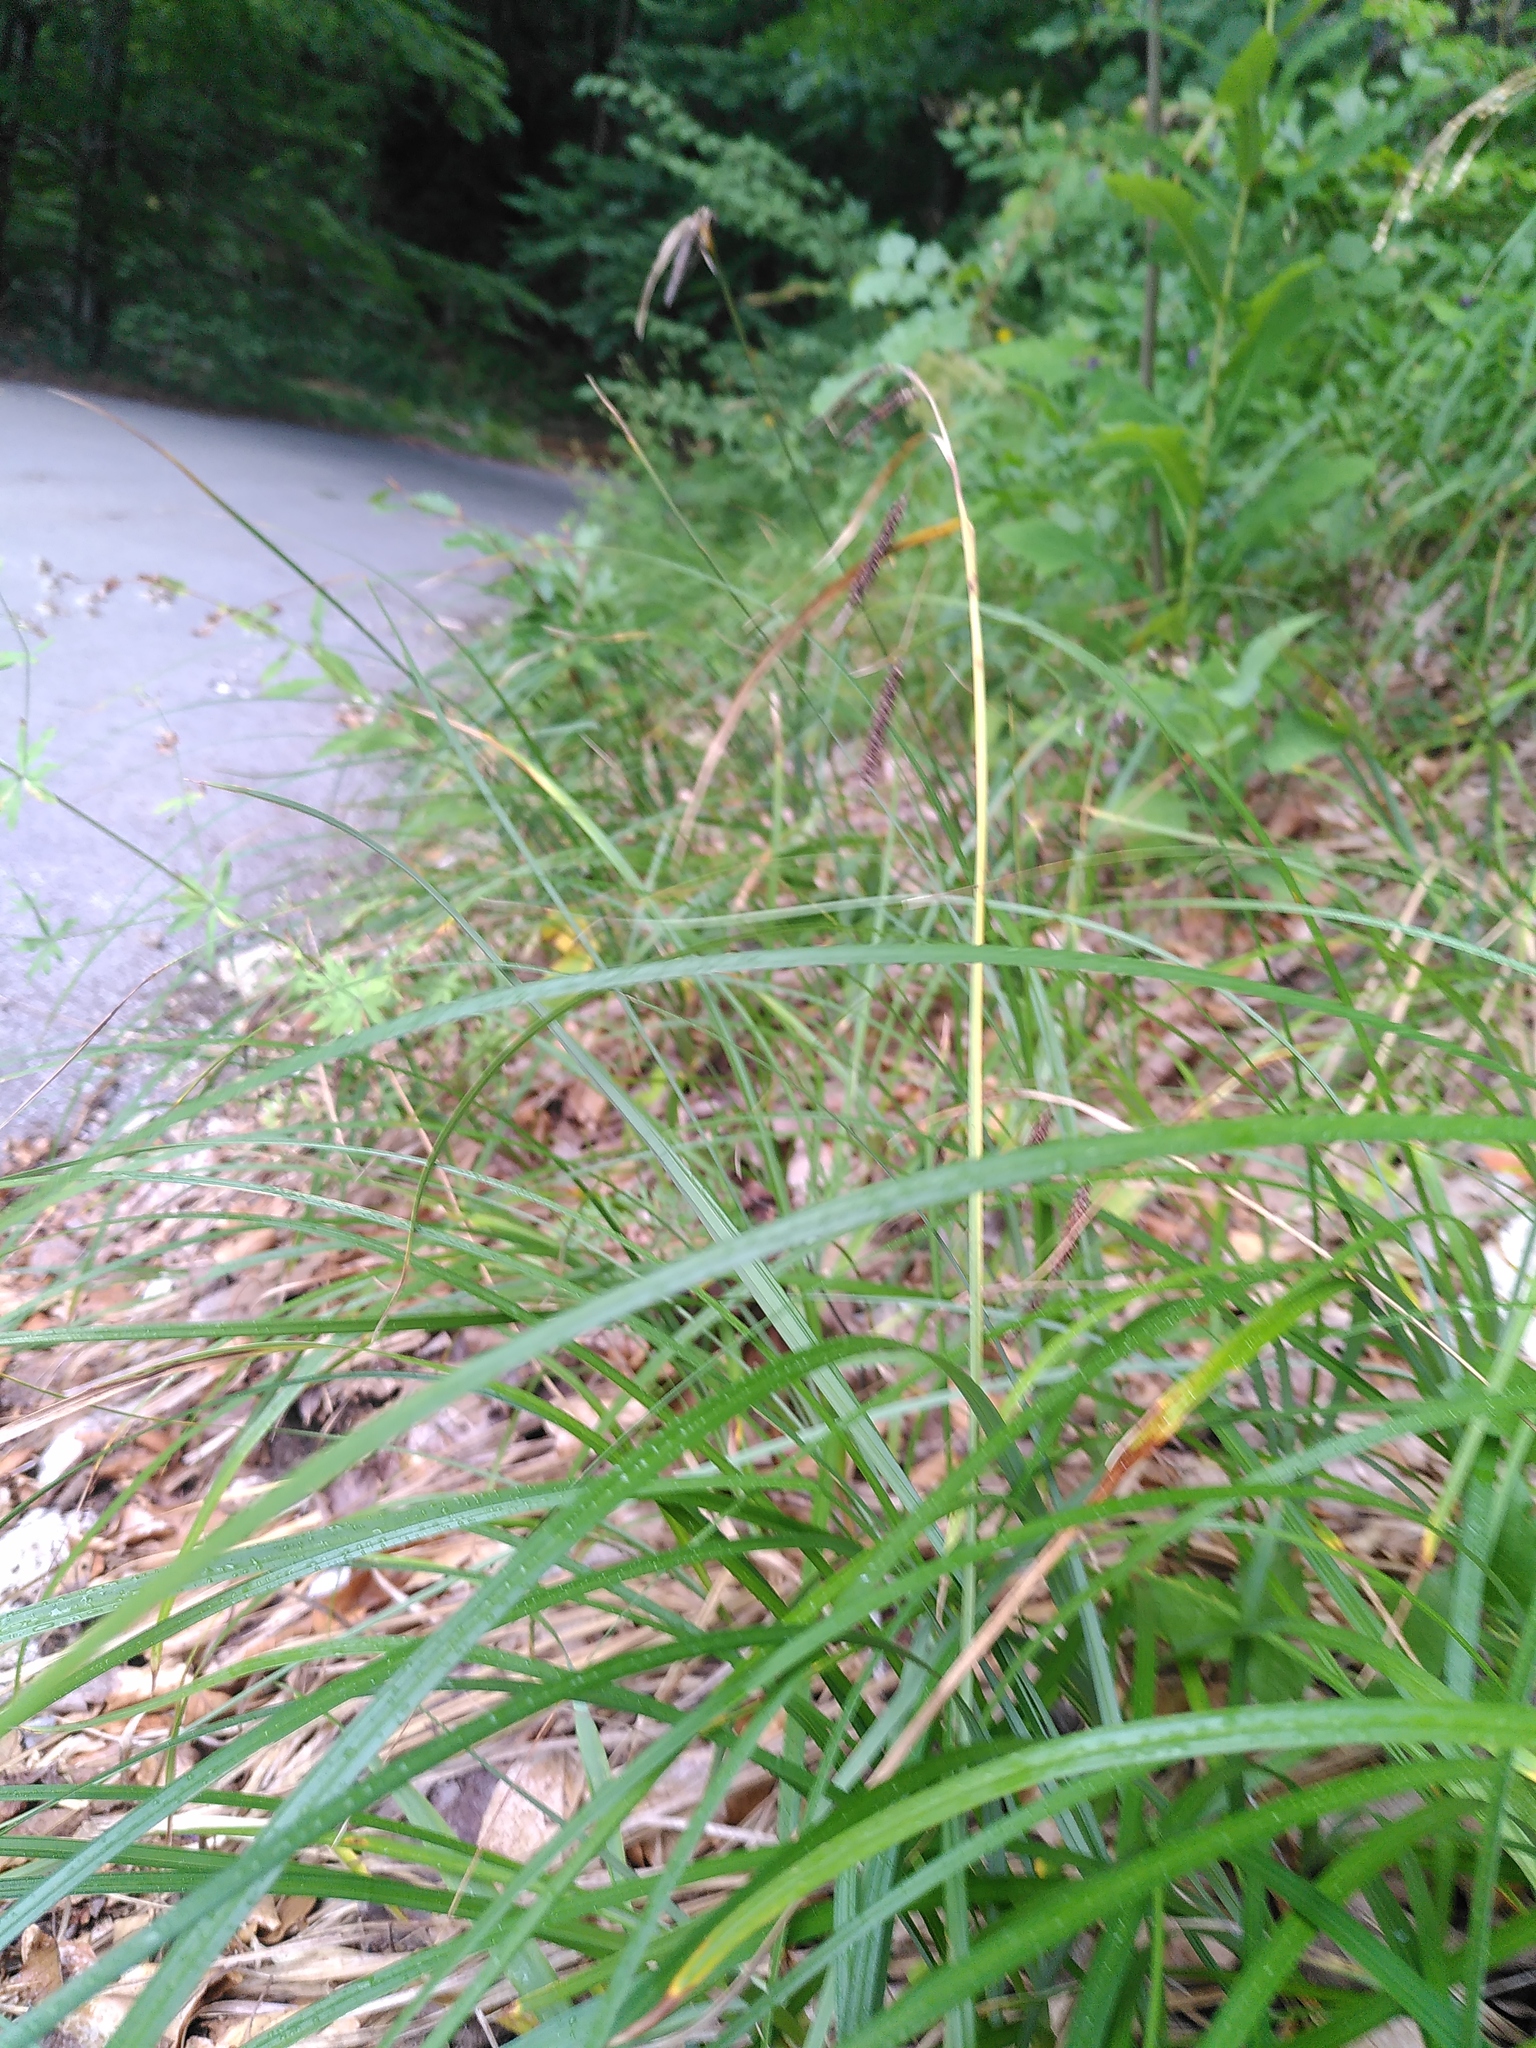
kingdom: Plantae
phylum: Tracheophyta
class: Liliopsida
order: Poales
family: Cyperaceae
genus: Carex
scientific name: Carex flacca
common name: Glaucous sedge
